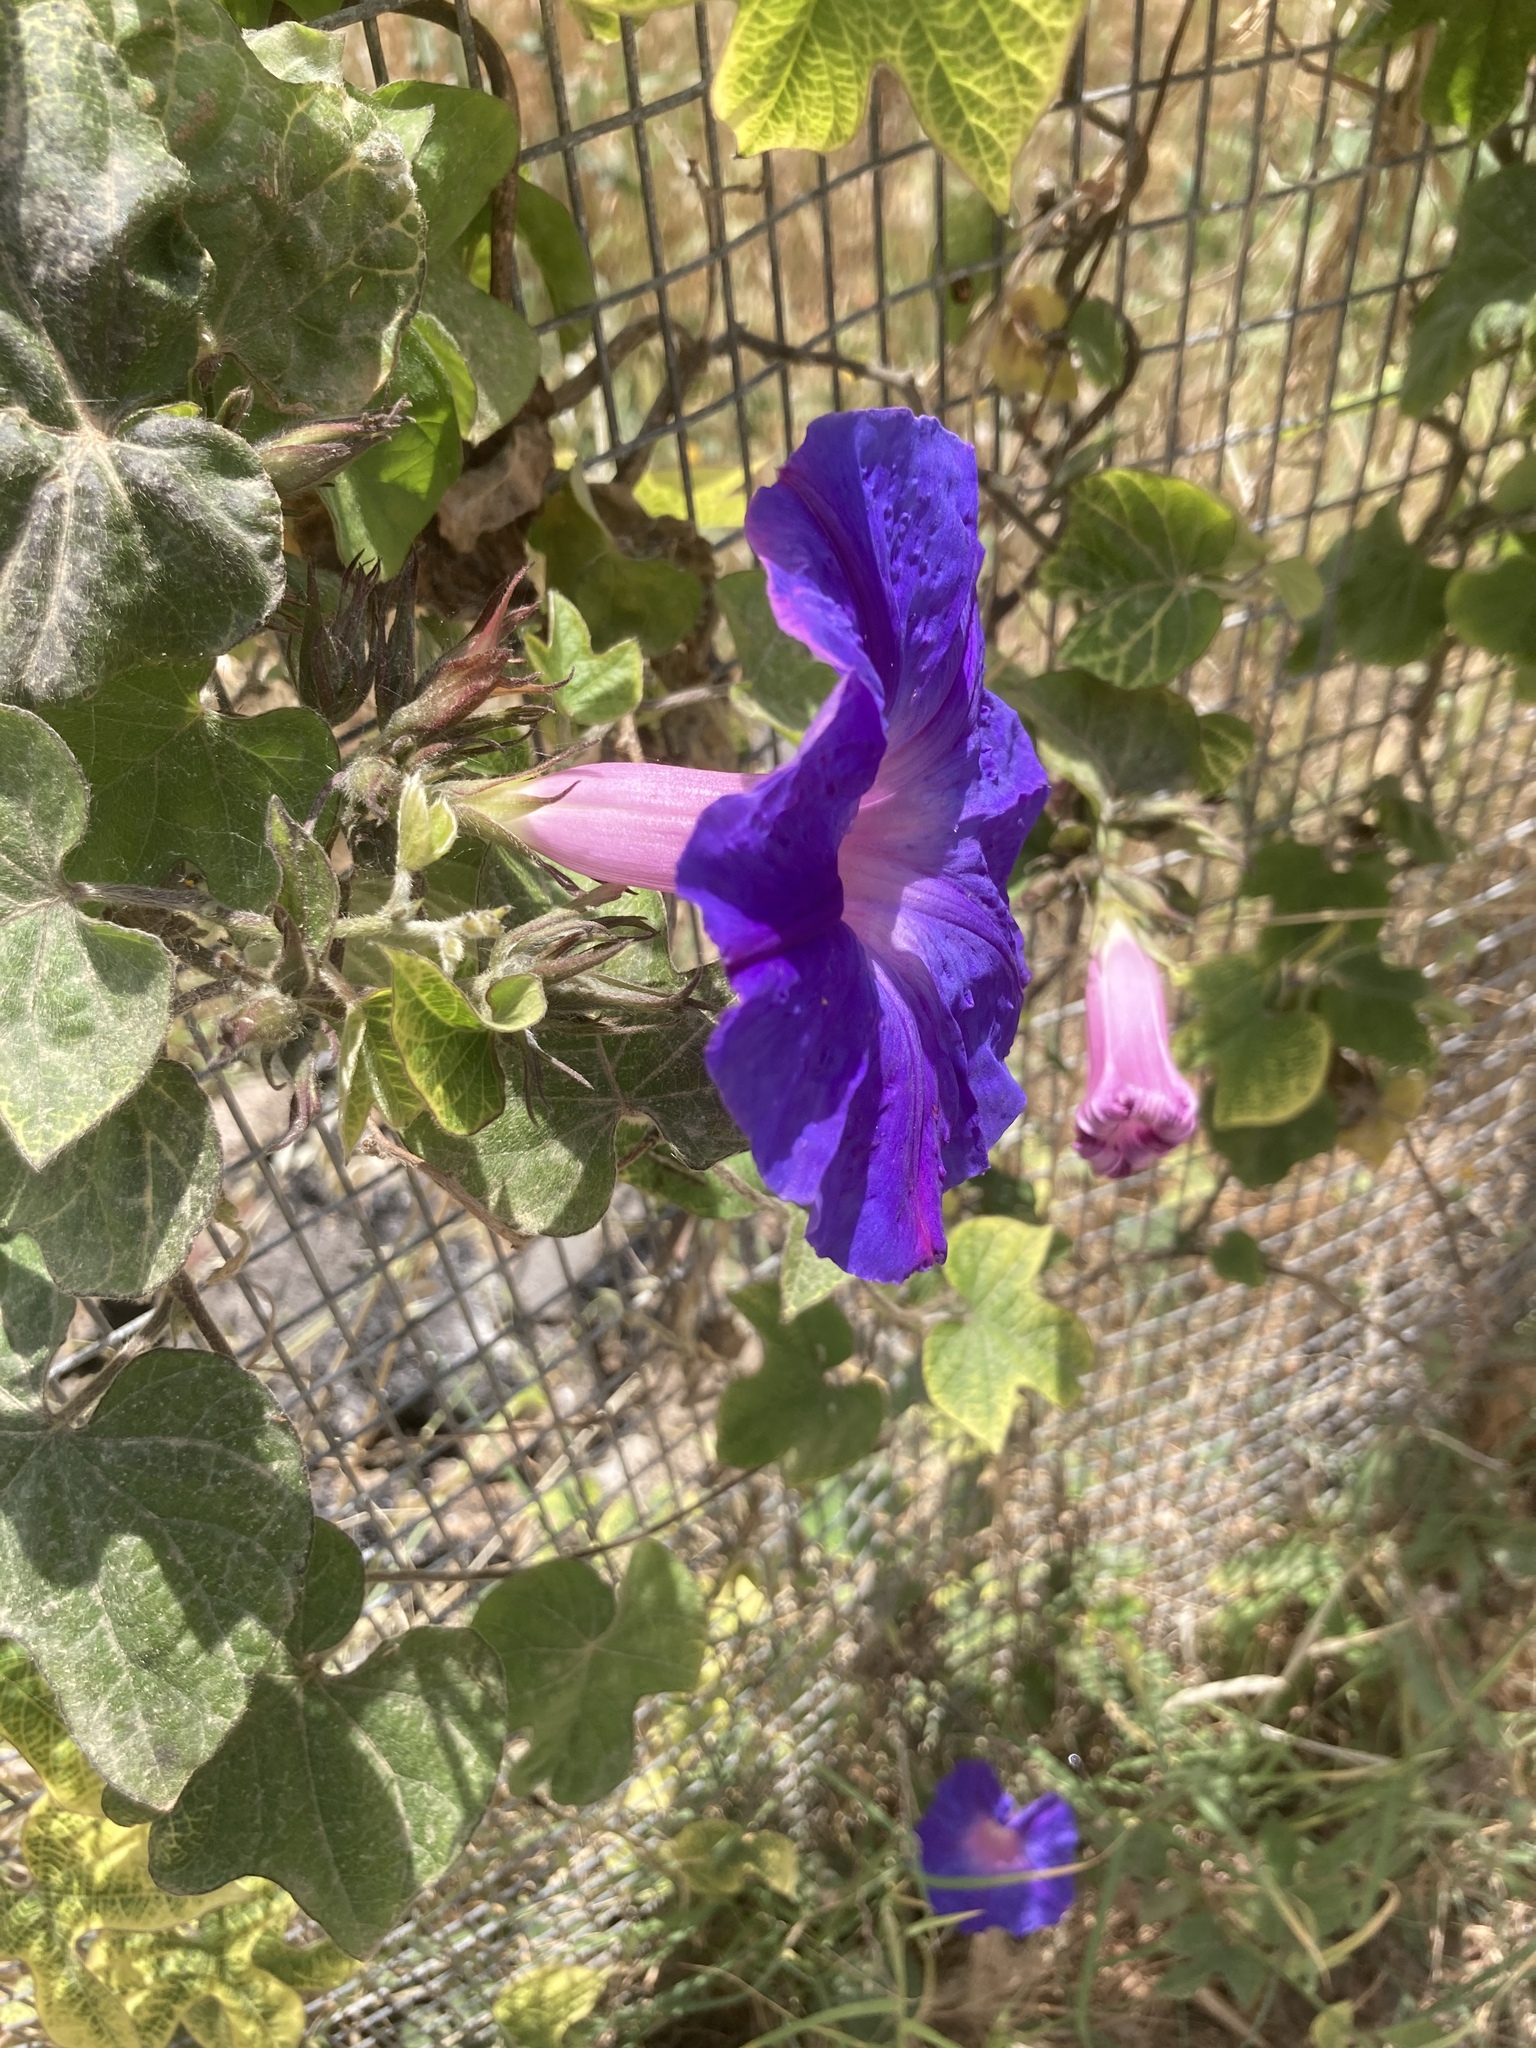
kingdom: Plantae
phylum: Tracheophyta
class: Magnoliopsida
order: Solanales
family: Convolvulaceae
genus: Ipomoea
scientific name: Ipomoea indica
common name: Blue dawnflower
